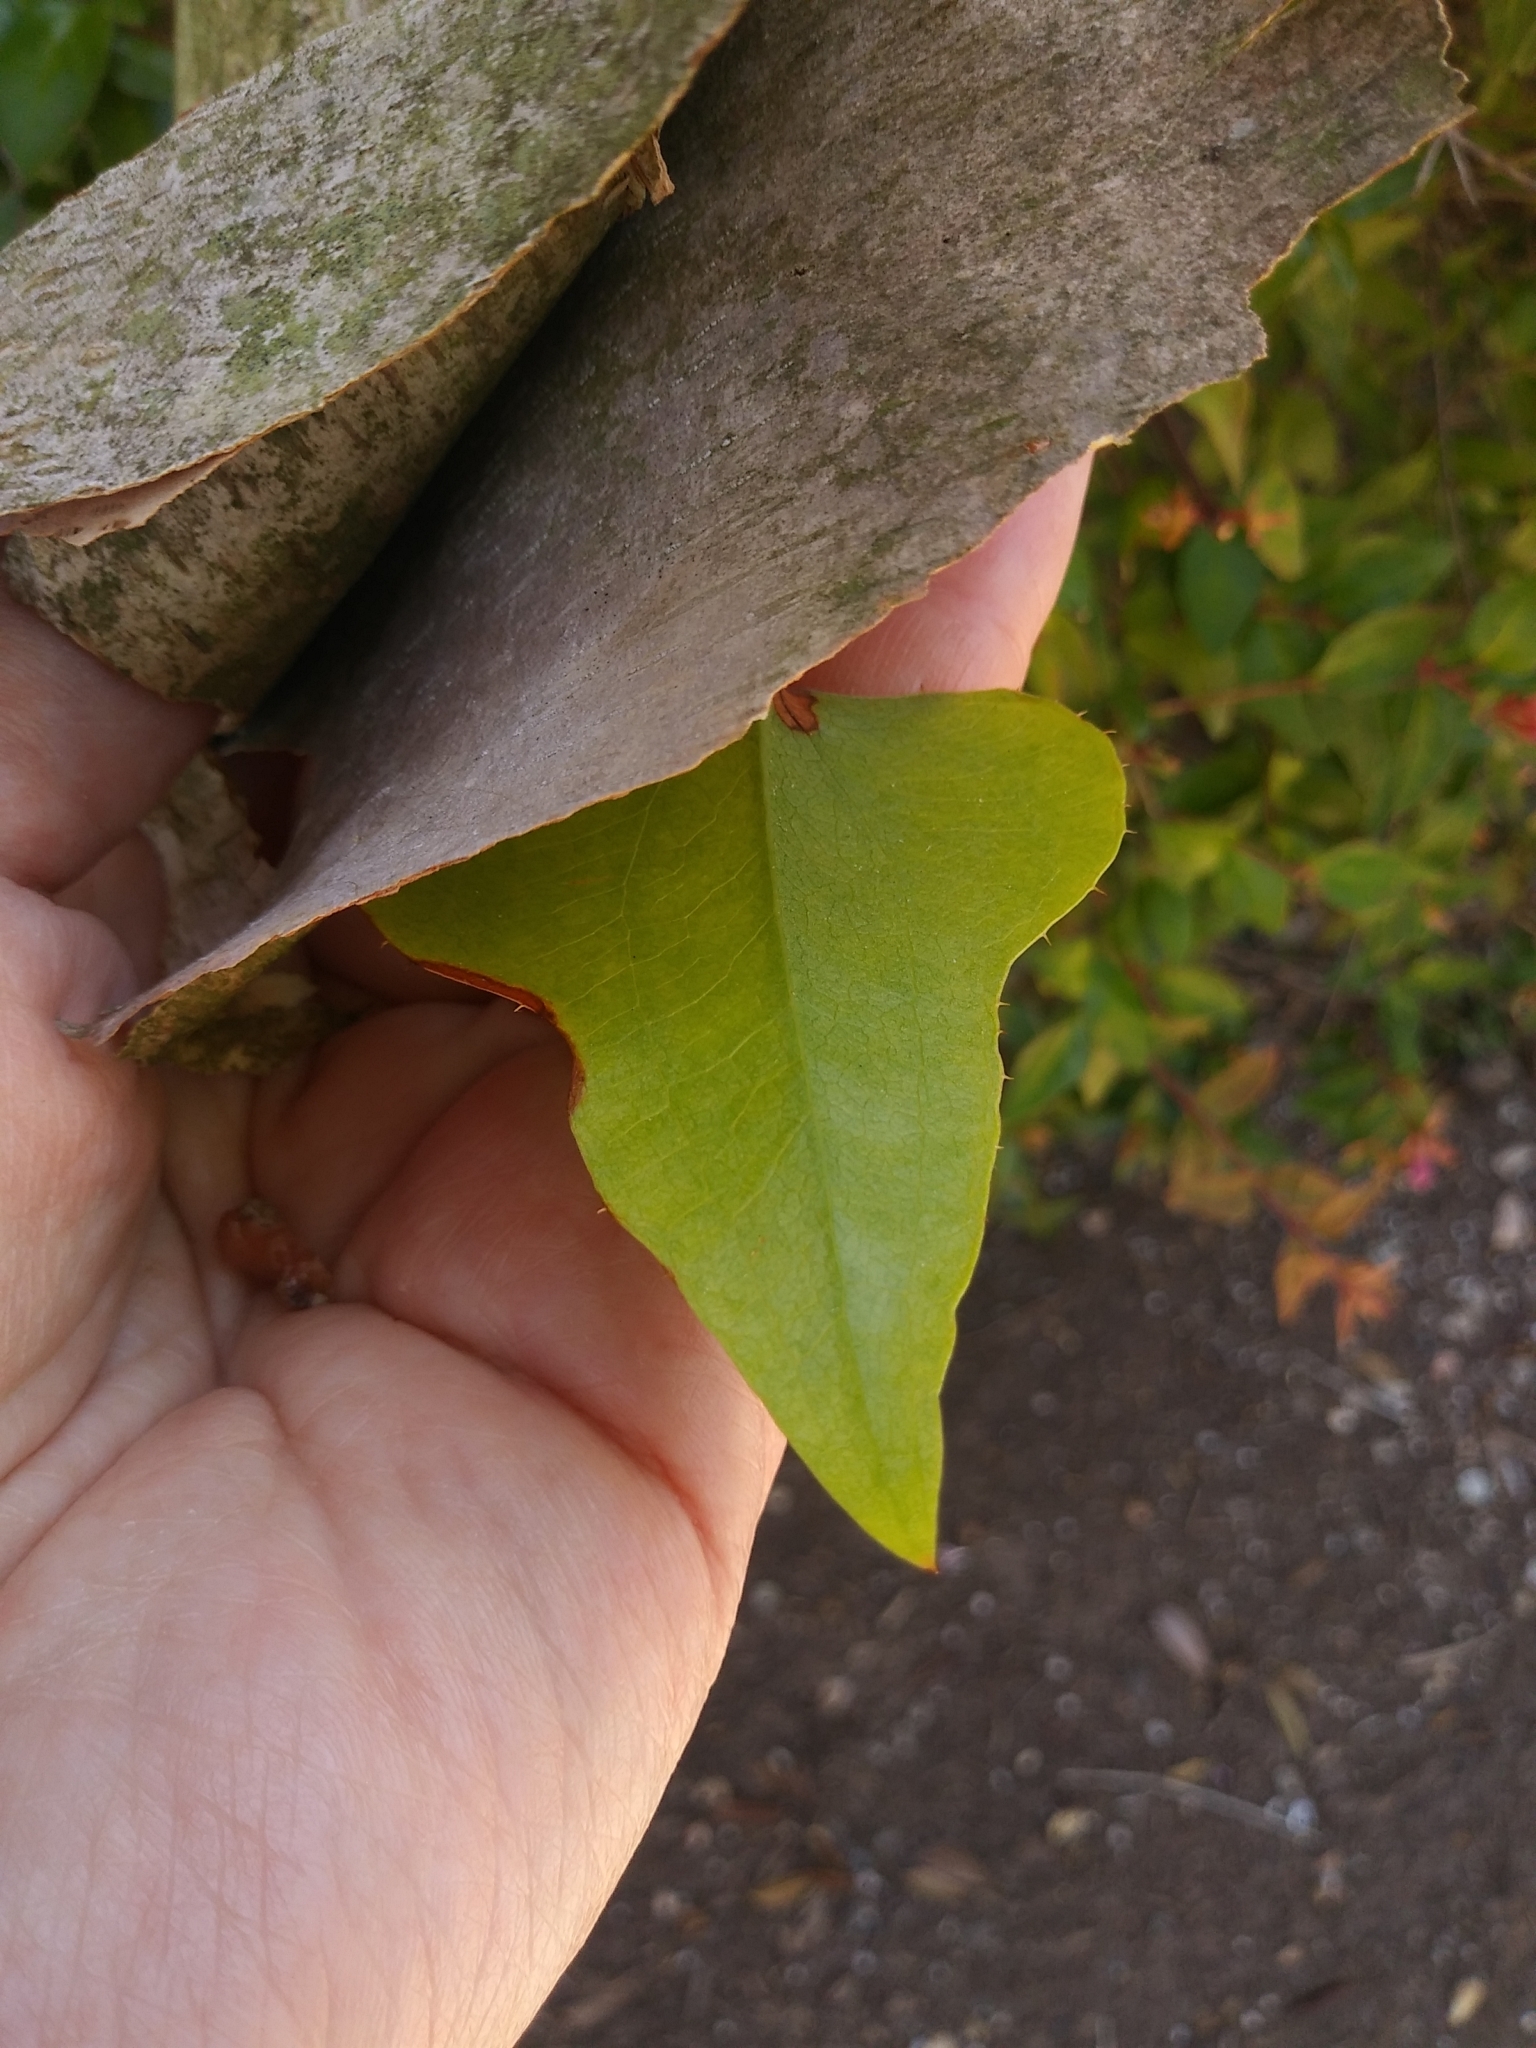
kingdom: Plantae
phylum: Tracheophyta
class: Liliopsida
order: Liliales
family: Smilacaceae
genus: Smilax
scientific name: Smilax bona-nox
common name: Catbrier
